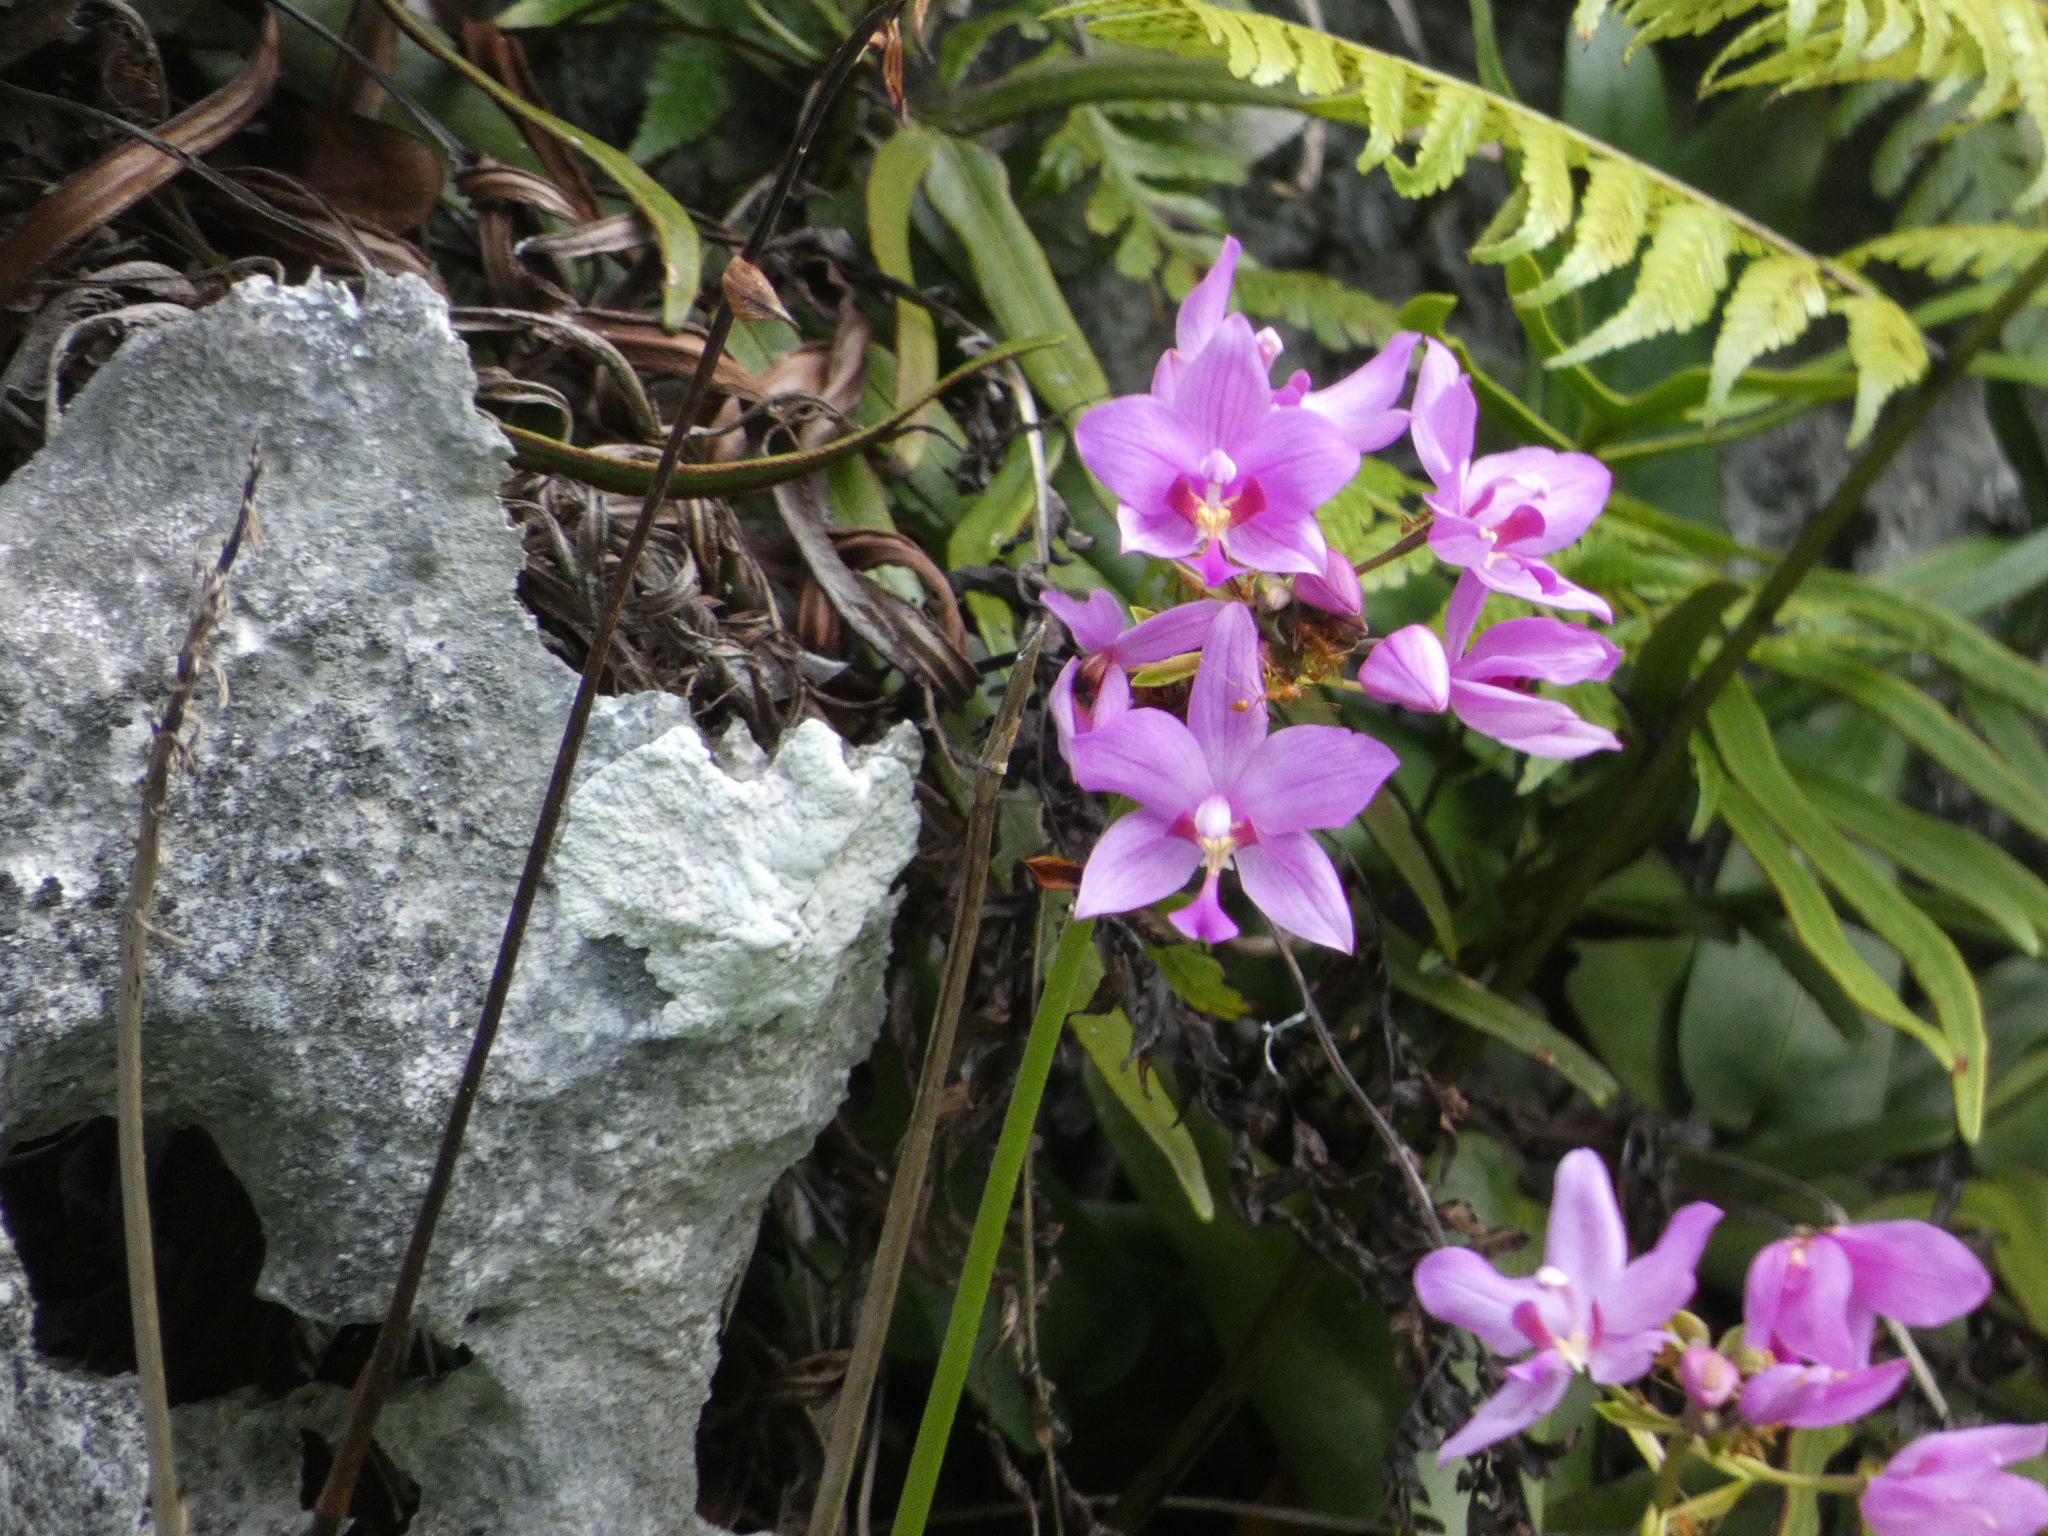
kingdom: Plantae
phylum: Tracheophyta
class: Liliopsida
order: Asparagales
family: Orchidaceae
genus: Spathoglottis
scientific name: Spathoglottis plicata
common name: Philippine ground orchid
